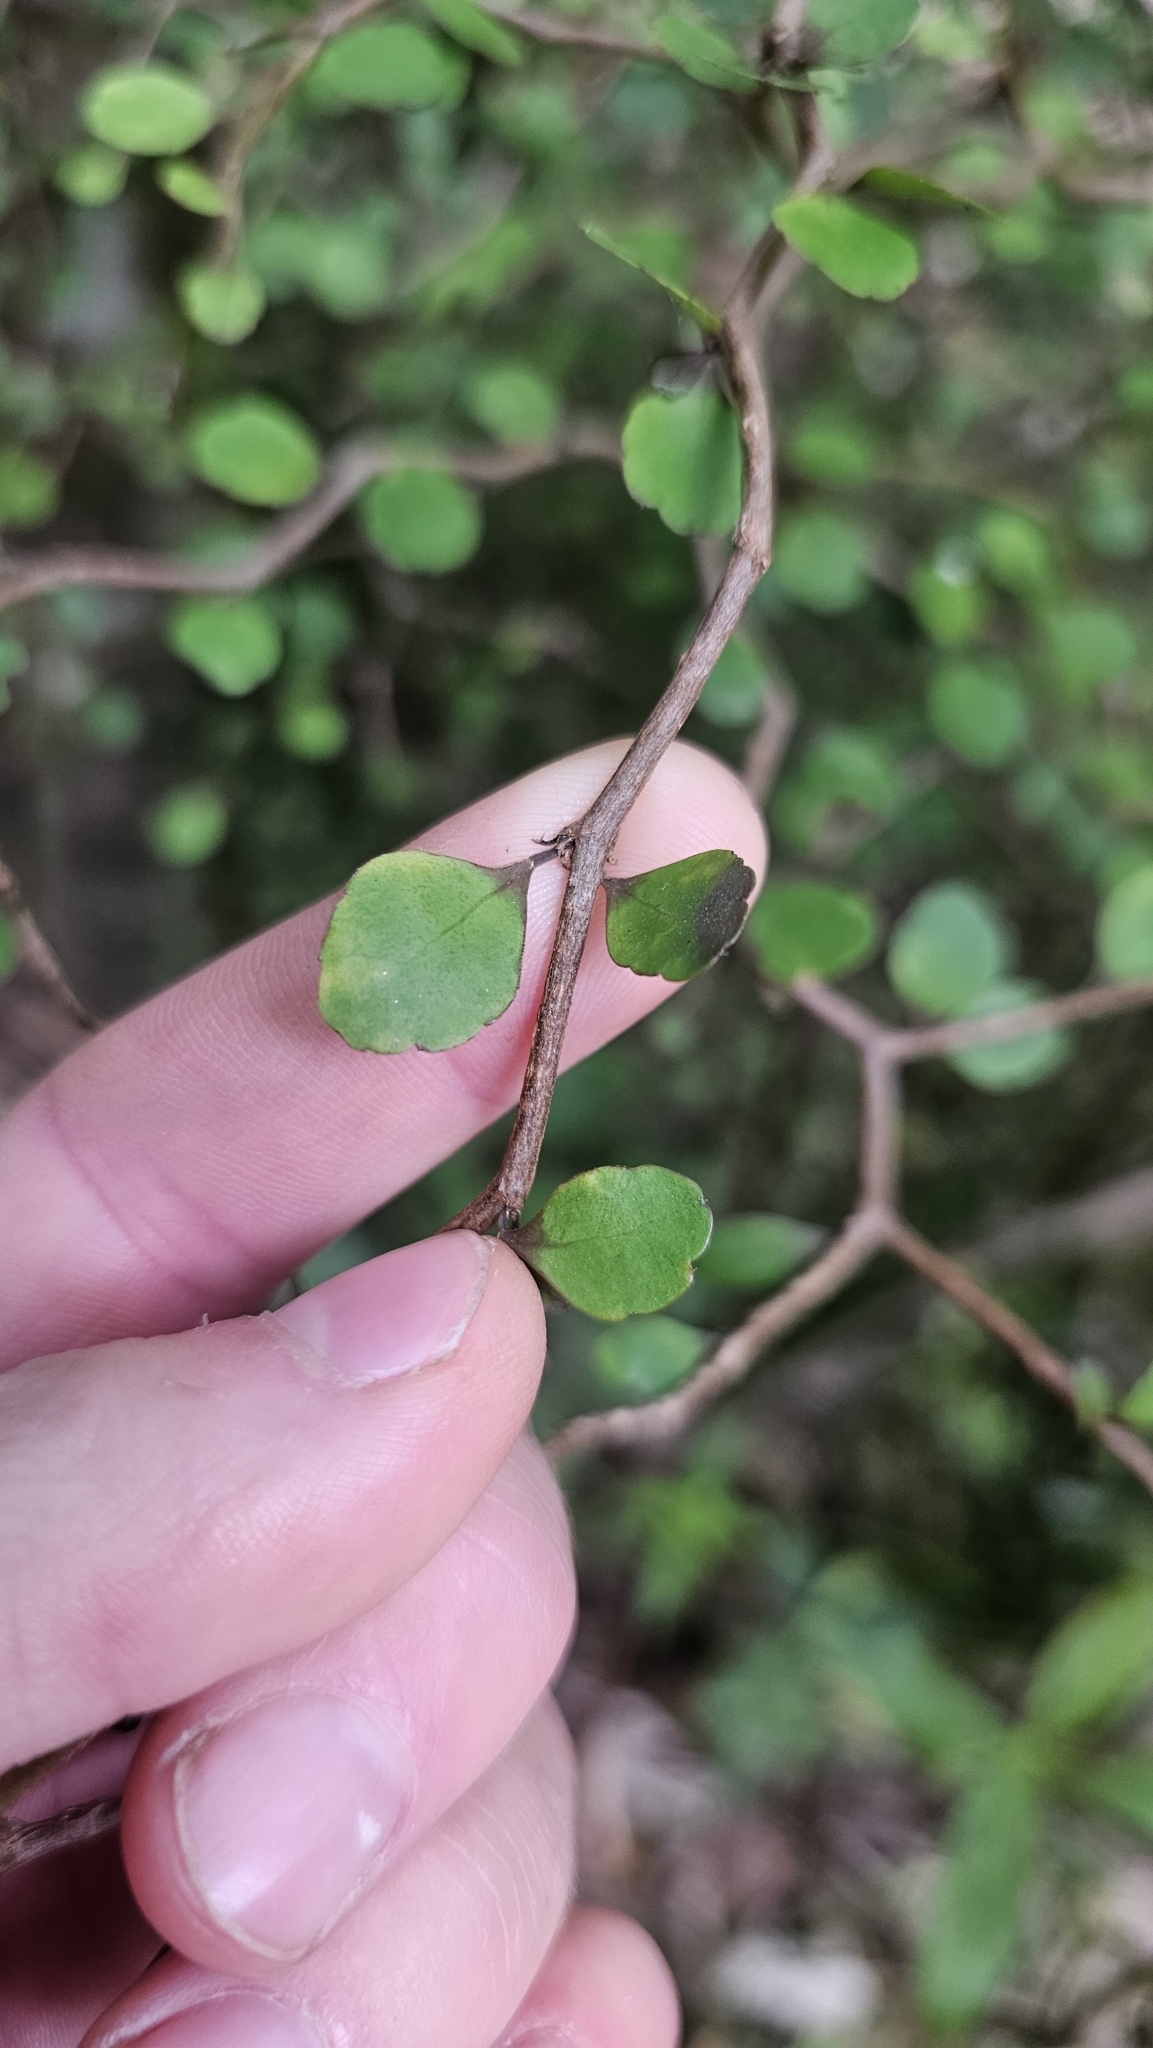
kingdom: Plantae
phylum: Tracheophyta
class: Magnoliopsida
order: Apiales
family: Araliaceae
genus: Raukaua
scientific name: Raukaua anomalus
